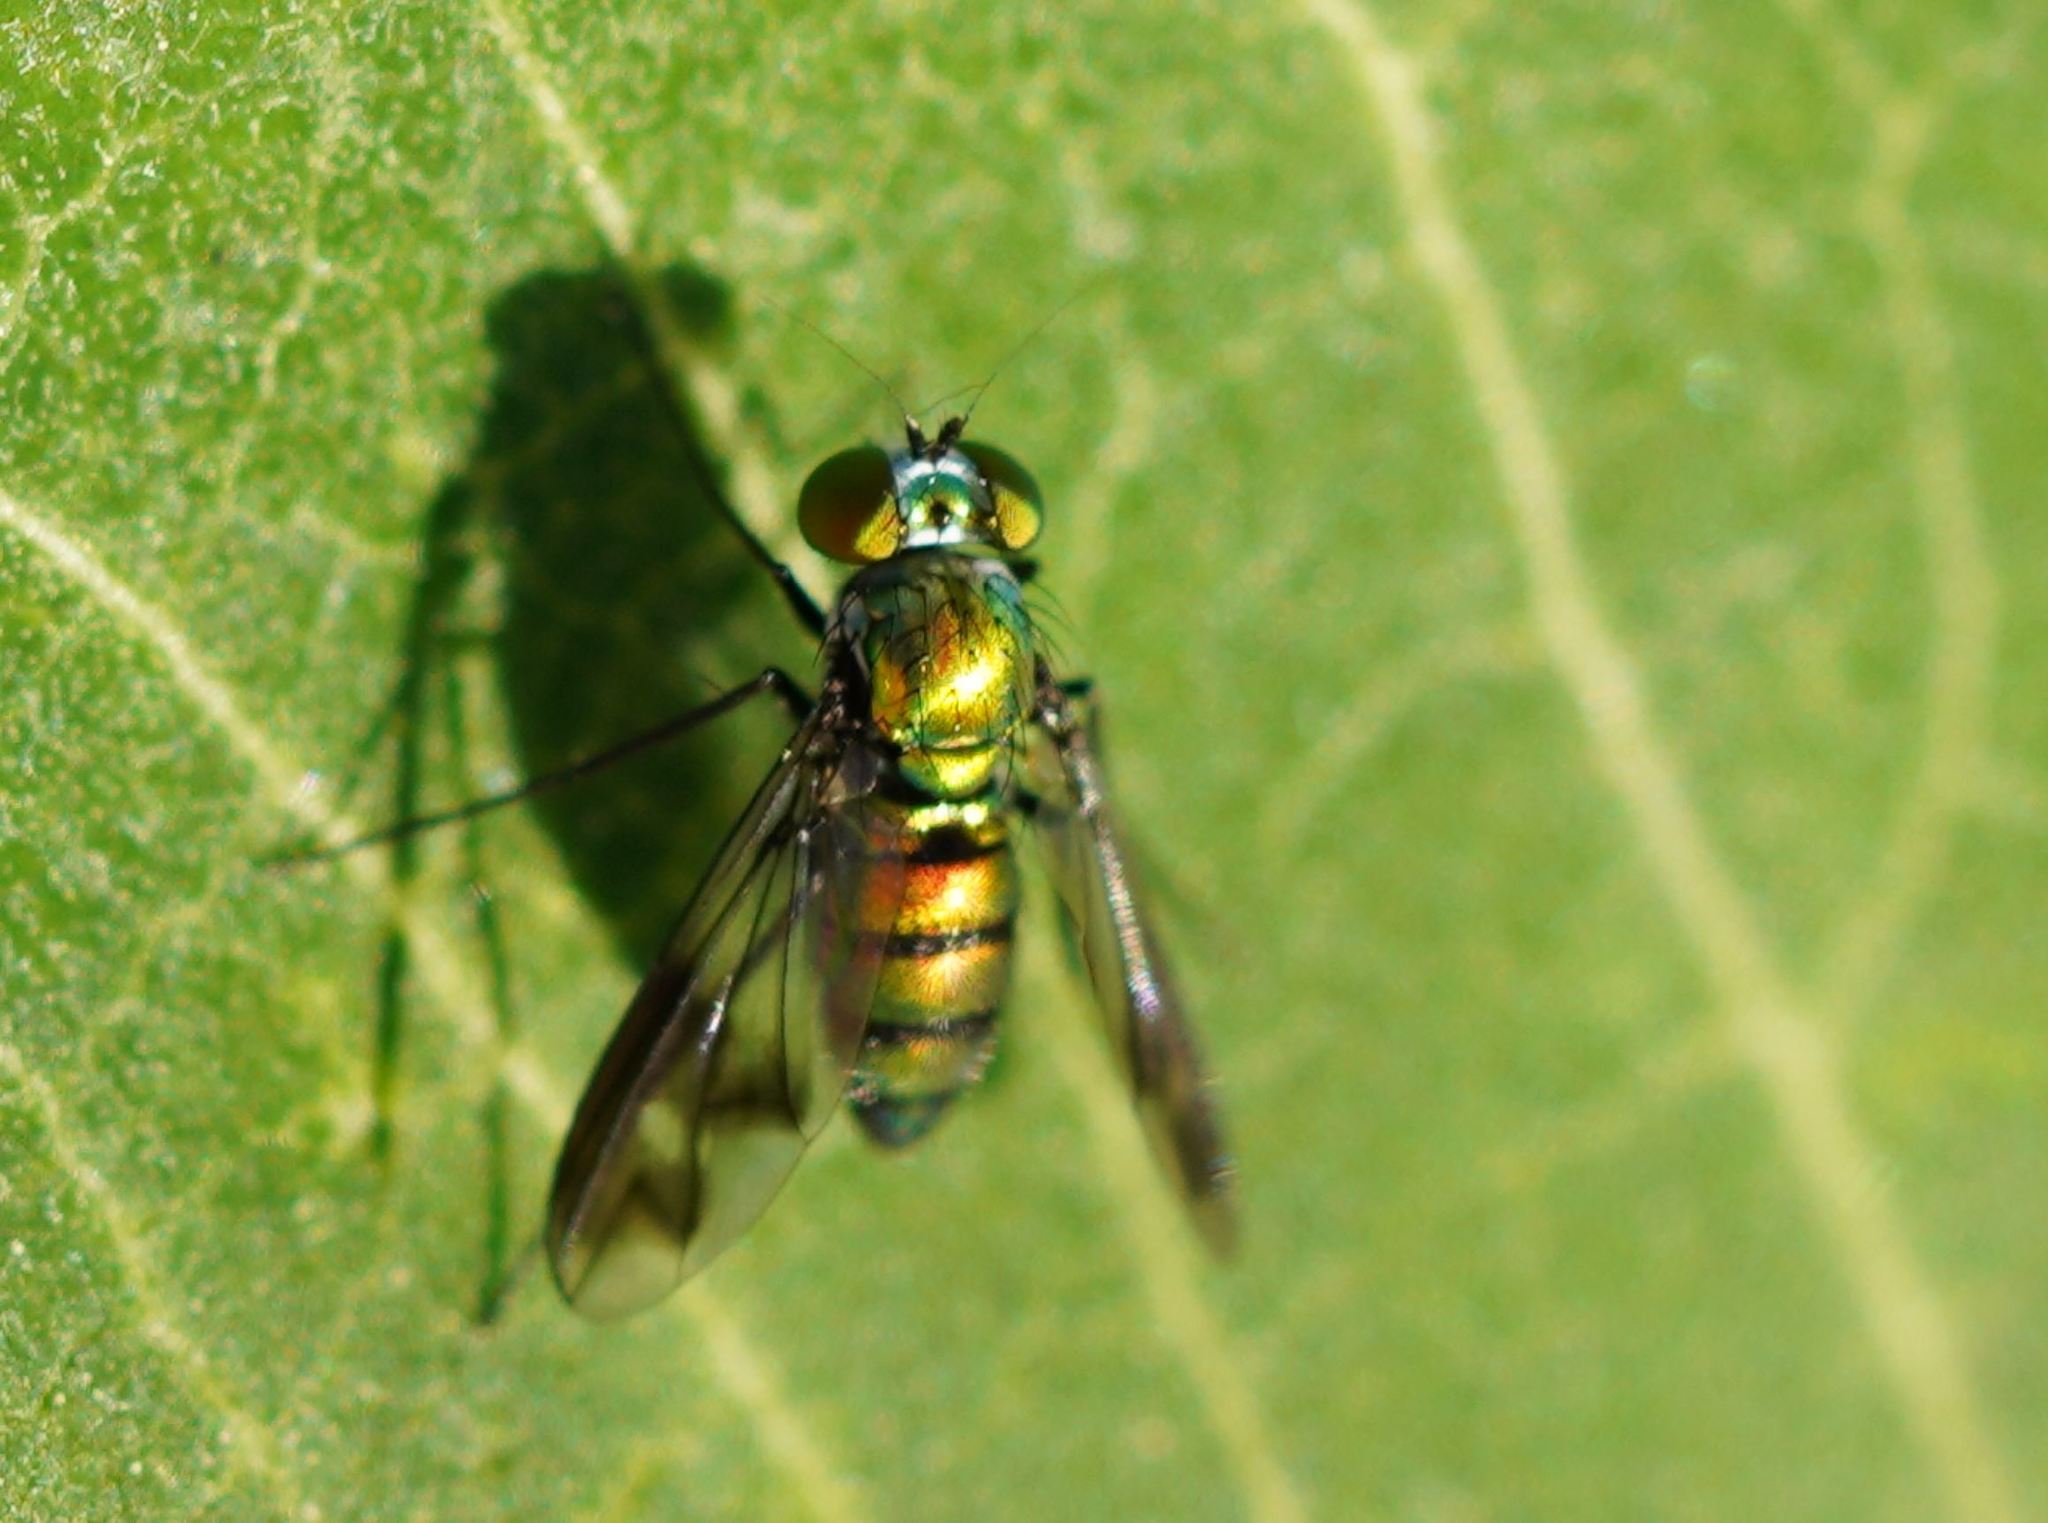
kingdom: Animalia
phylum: Arthropoda
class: Insecta
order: Diptera
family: Dolichopodidae
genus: Condylostylus
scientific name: Condylostylus patibulatus
